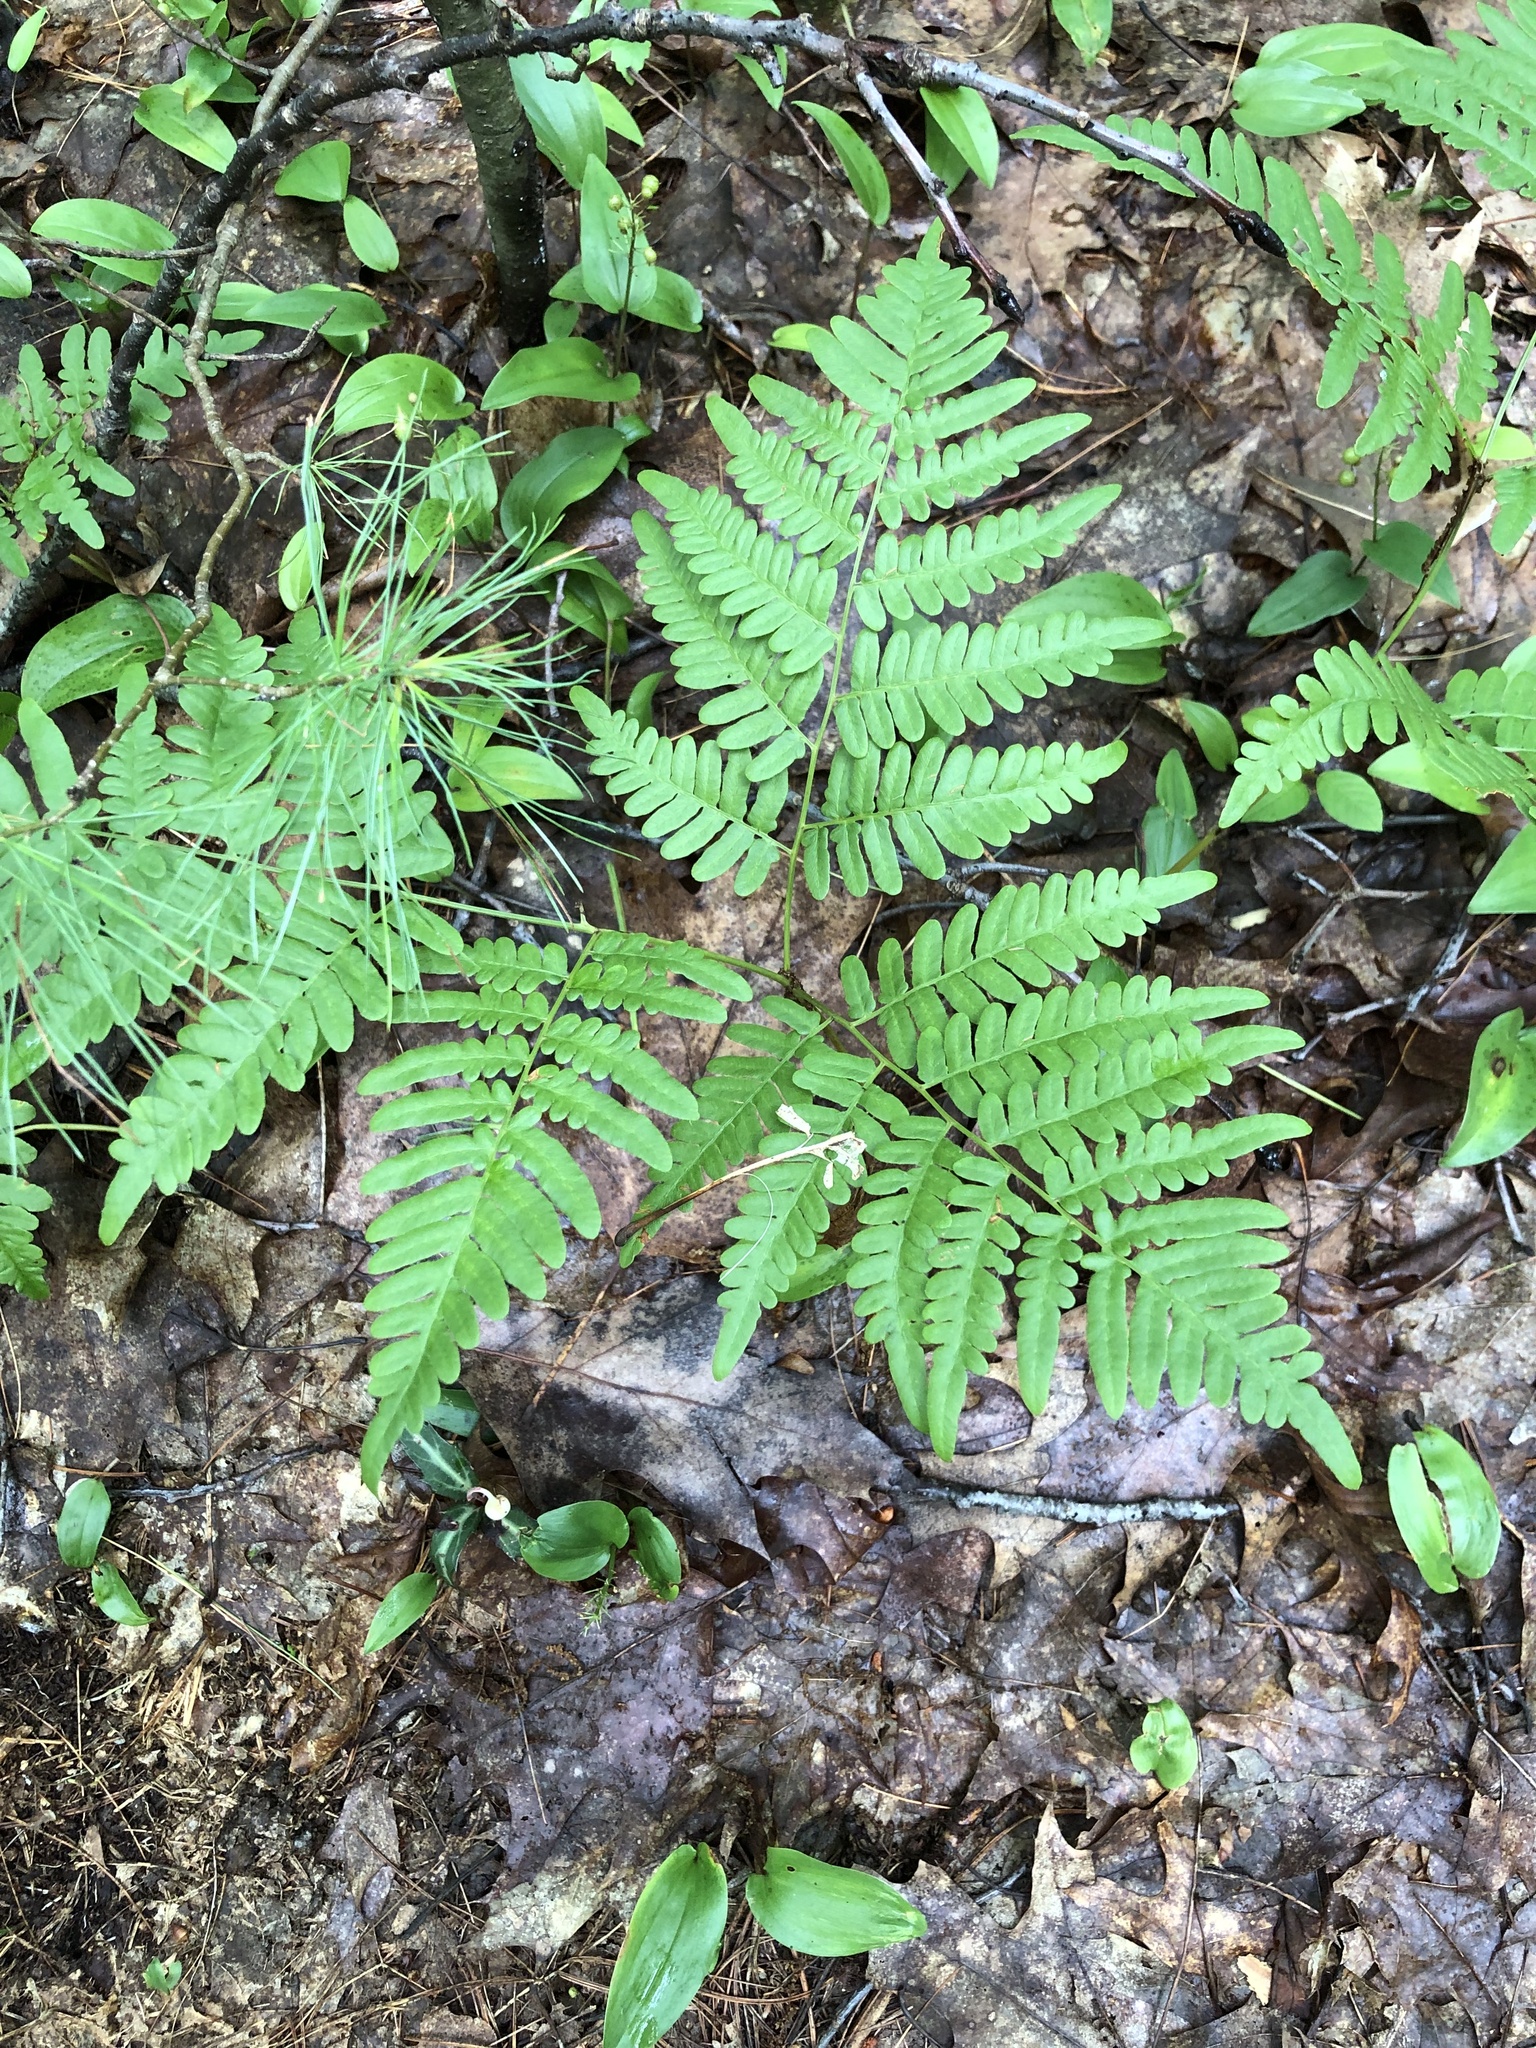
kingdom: Plantae
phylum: Tracheophyta
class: Polypodiopsida
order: Polypodiales
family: Dennstaedtiaceae
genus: Pteridium
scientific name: Pteridium aquilinum
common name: Bracken
